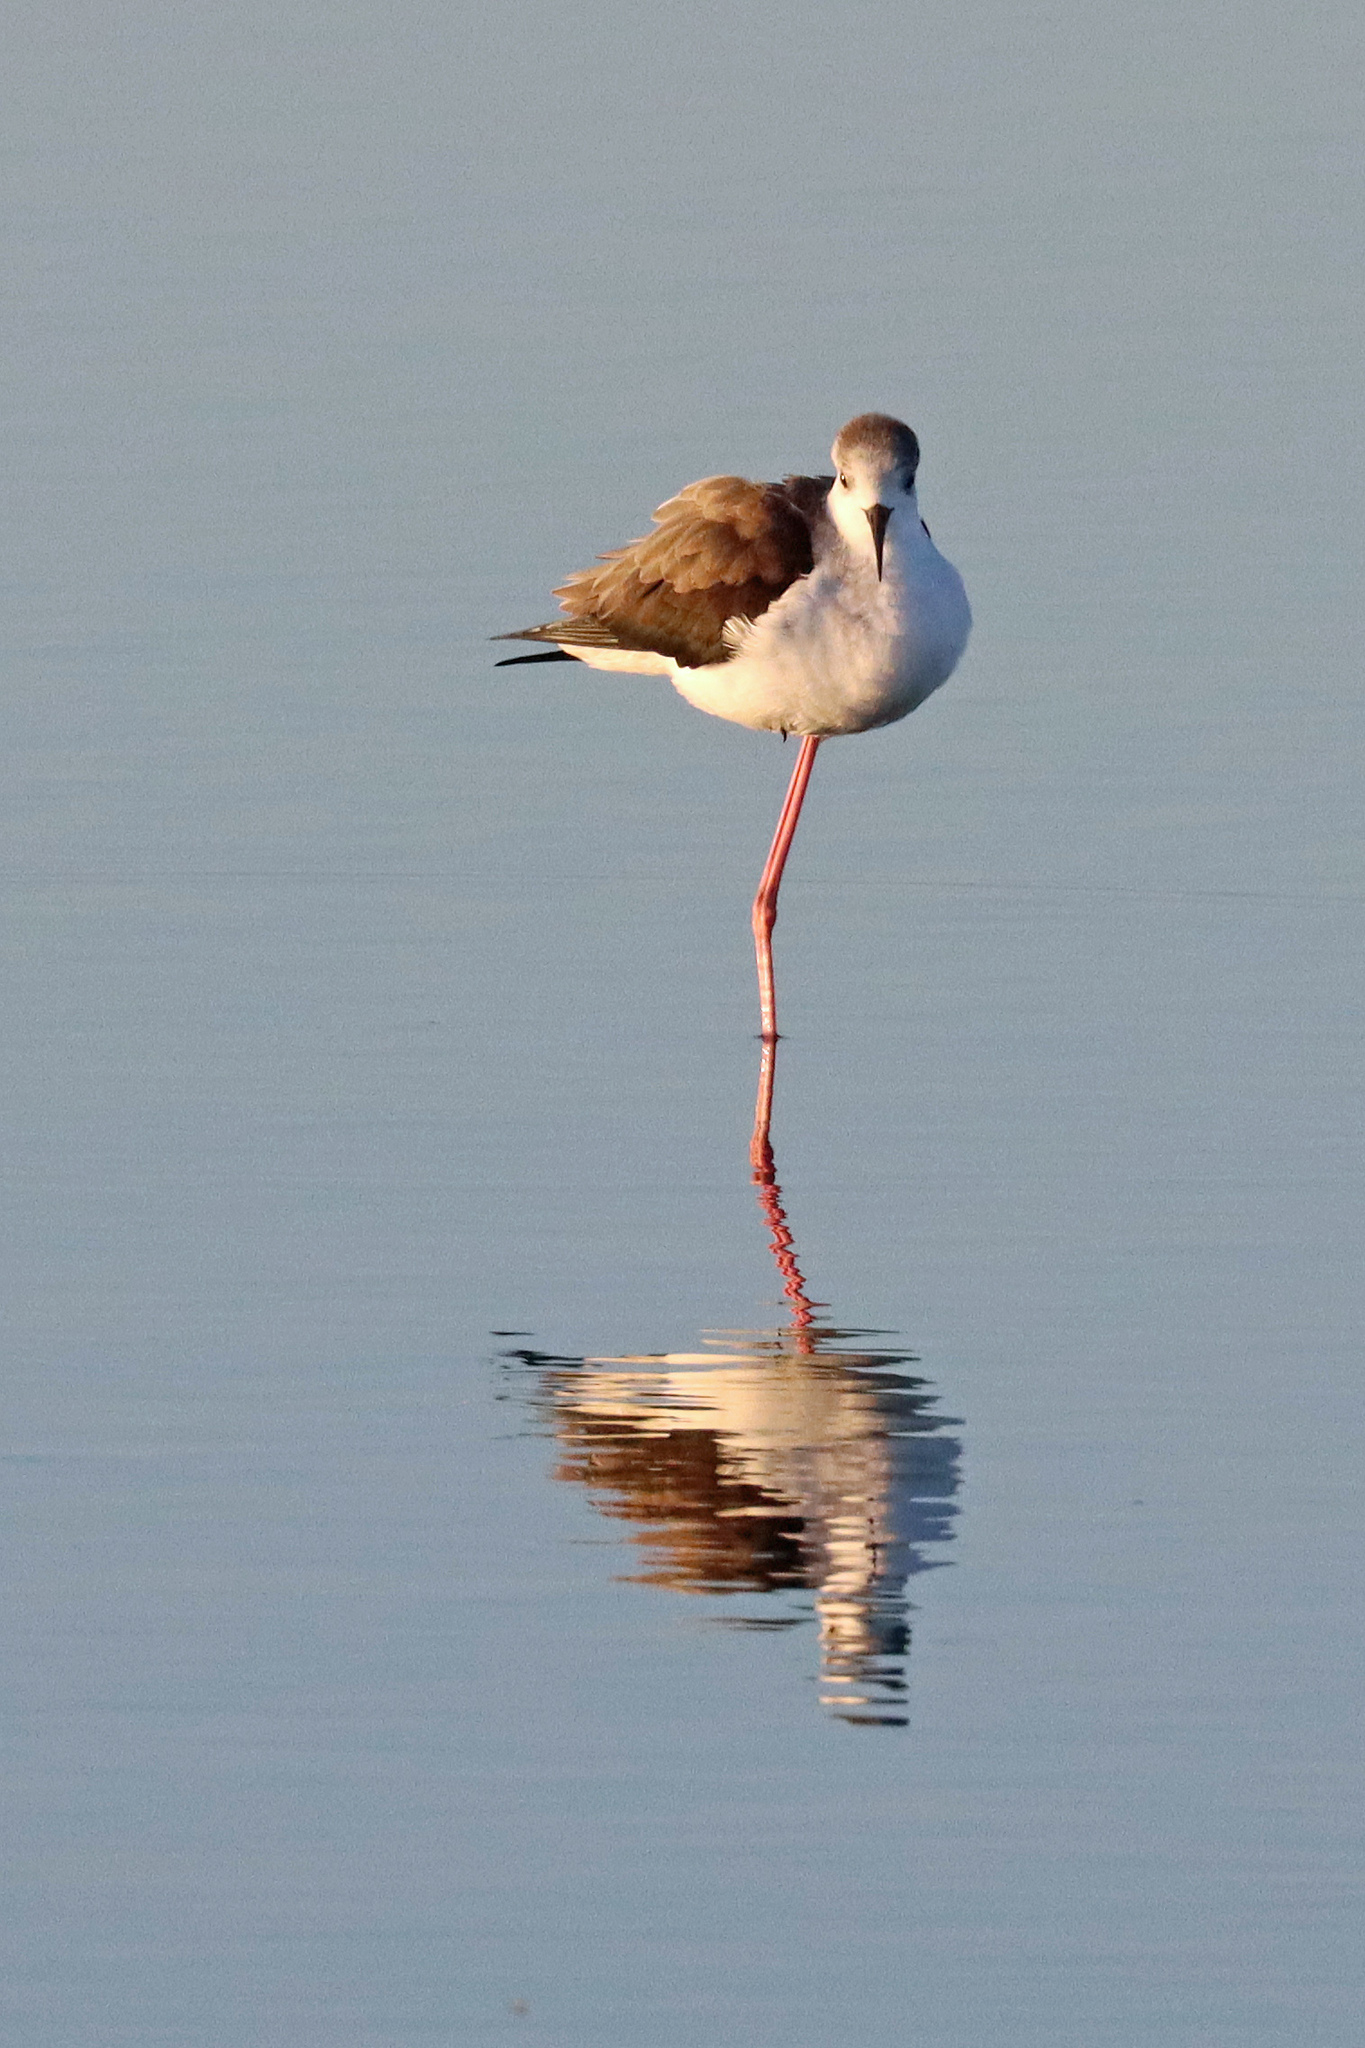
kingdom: Animalia
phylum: Chordata
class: Aves
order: Charadriiformes
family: Recurvirostridae
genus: Himantopus
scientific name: Himantopus himantopus
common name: Black-winged stilt
